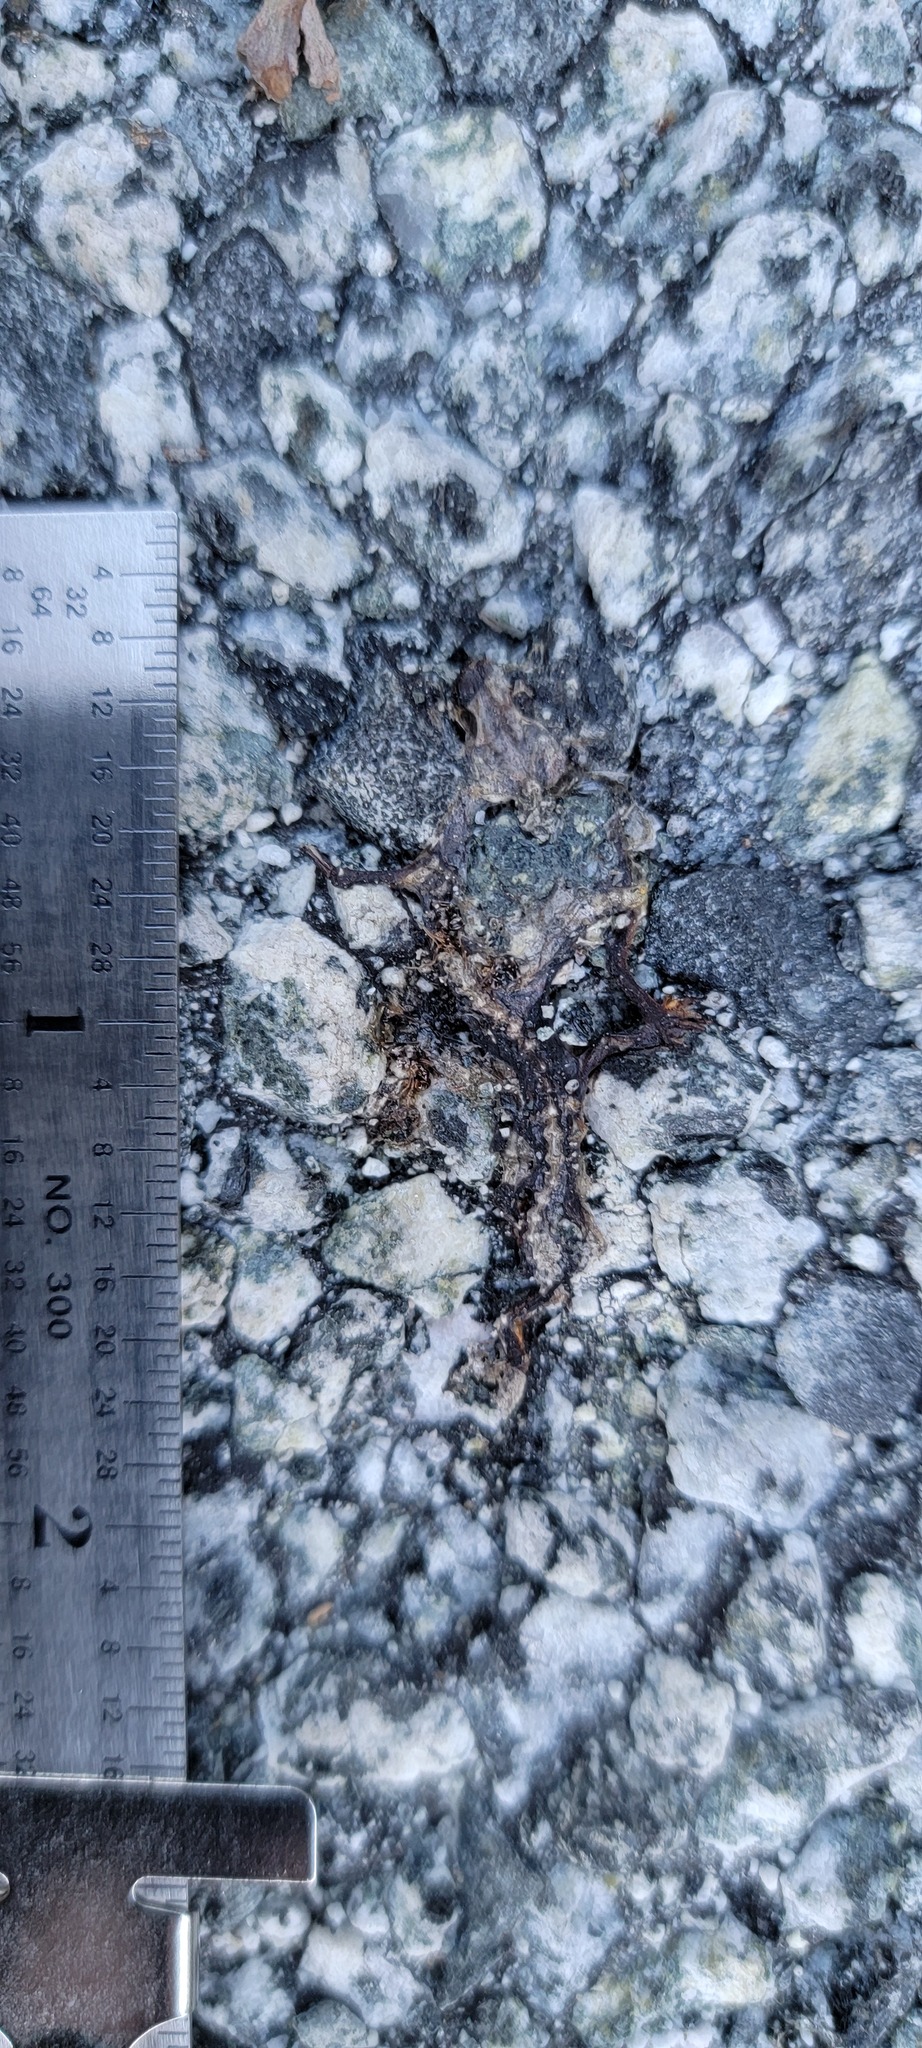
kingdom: Animalia
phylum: Chordata
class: Amphibia
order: Caudata
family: Salamandridae
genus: Taricha
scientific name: Taricha
